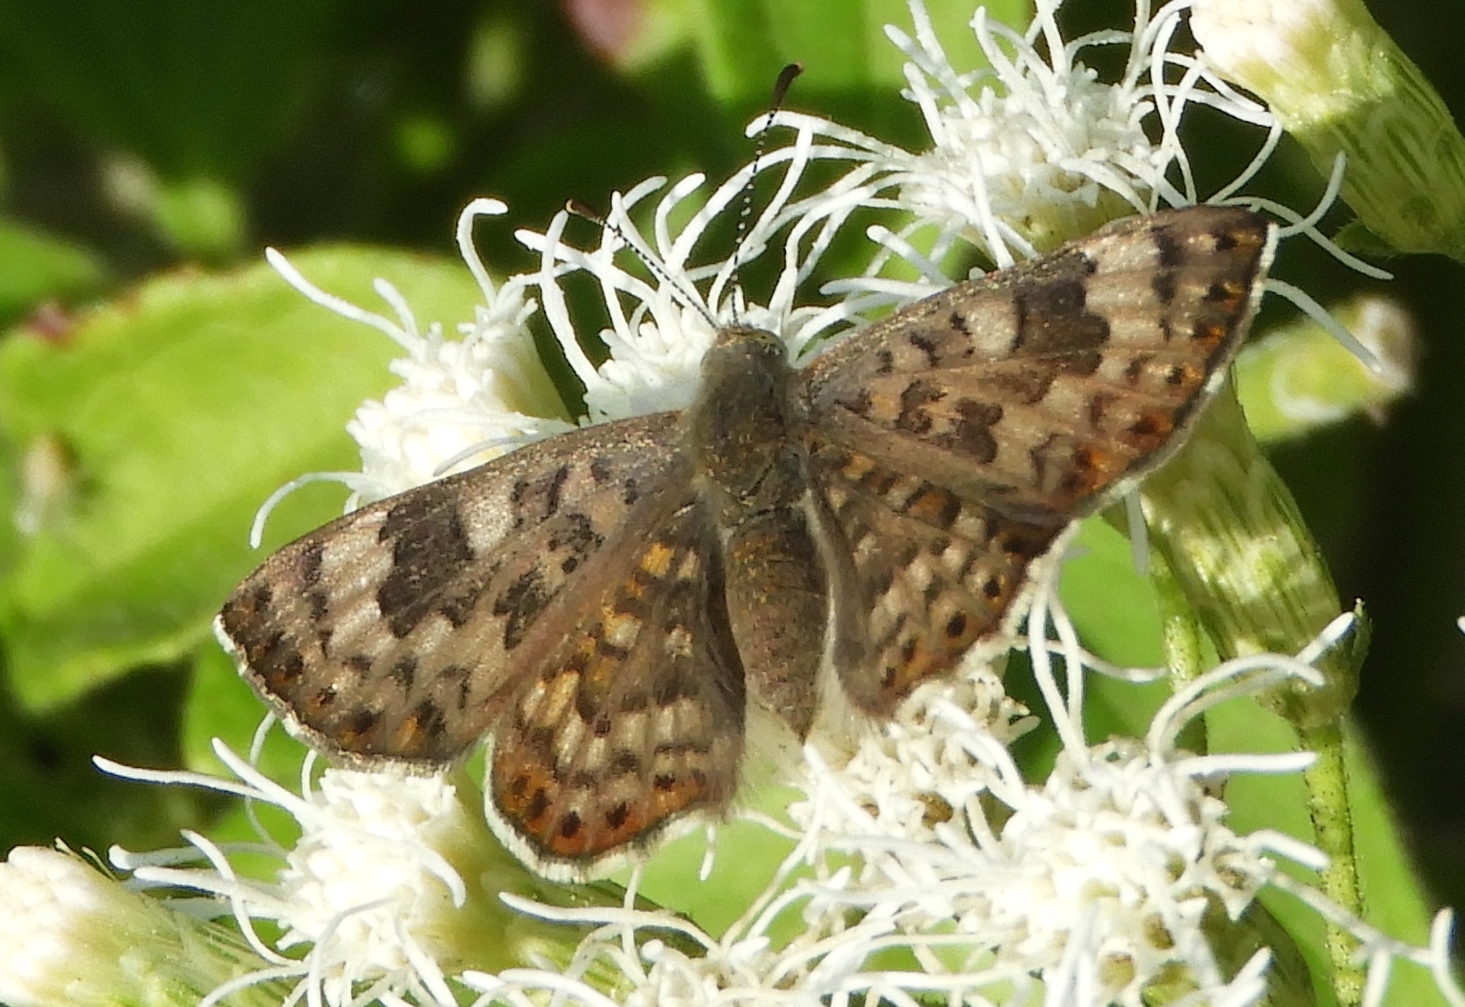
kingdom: Animalia
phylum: Arthropoda
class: Insecta
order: Lepidoptera
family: Riodinidae
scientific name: Riodinidae
